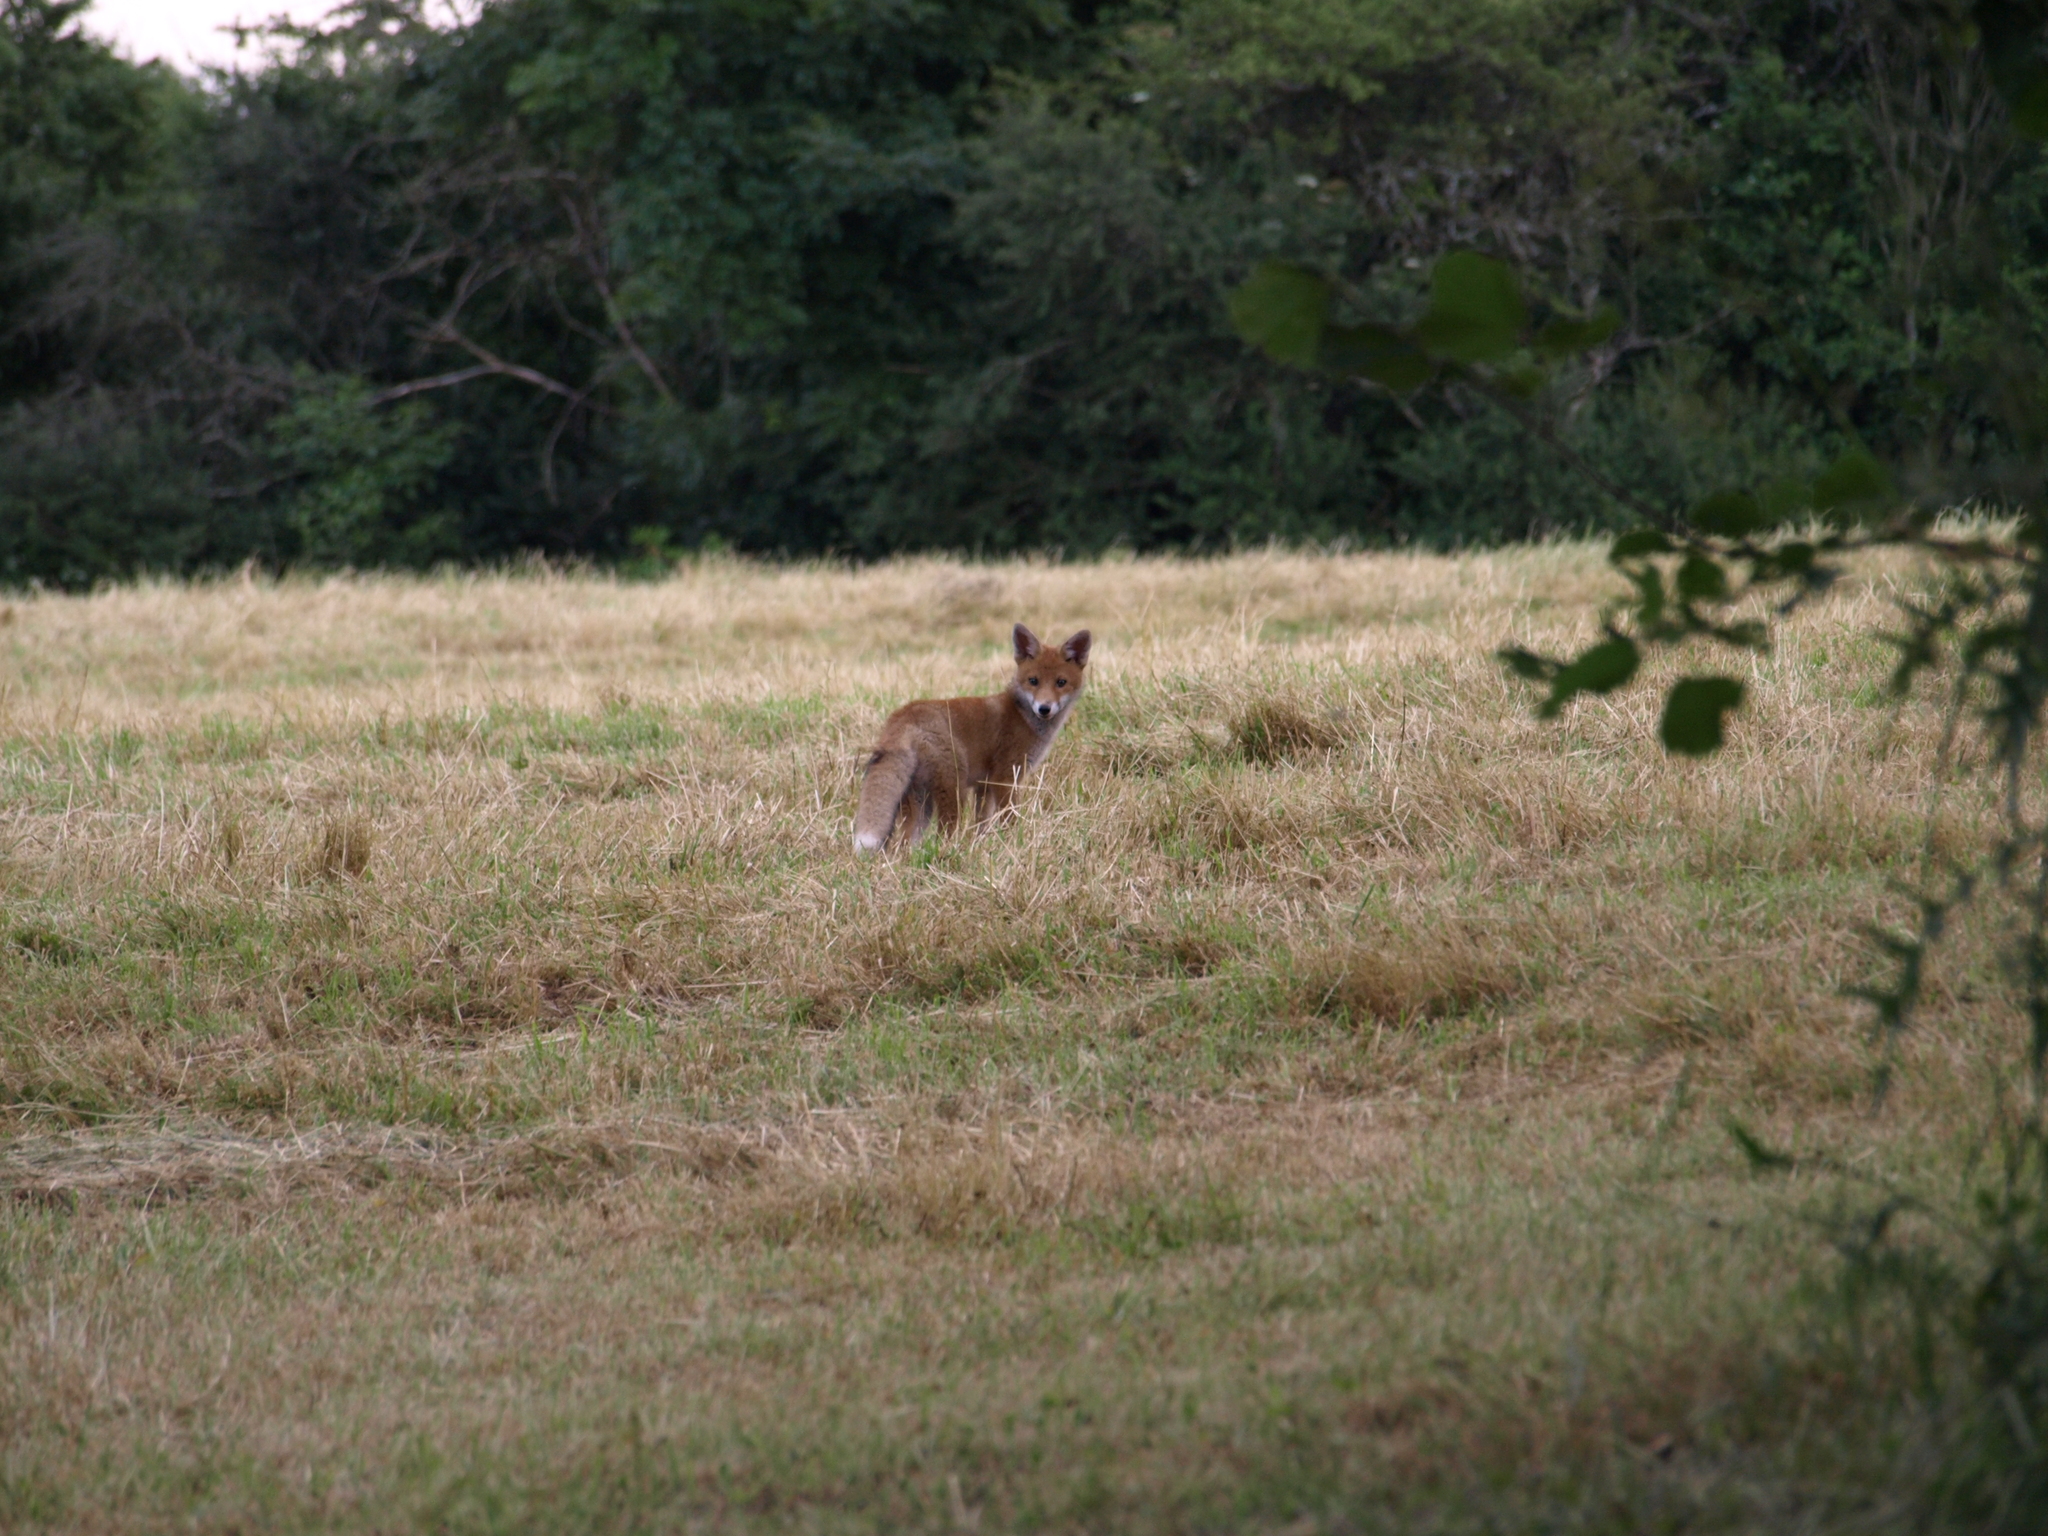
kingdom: Animalia
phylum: Chordata
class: Mammalia
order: Carnivora
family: Canidae
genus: Vulpes
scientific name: Vulpes vulpes
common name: Red fox
